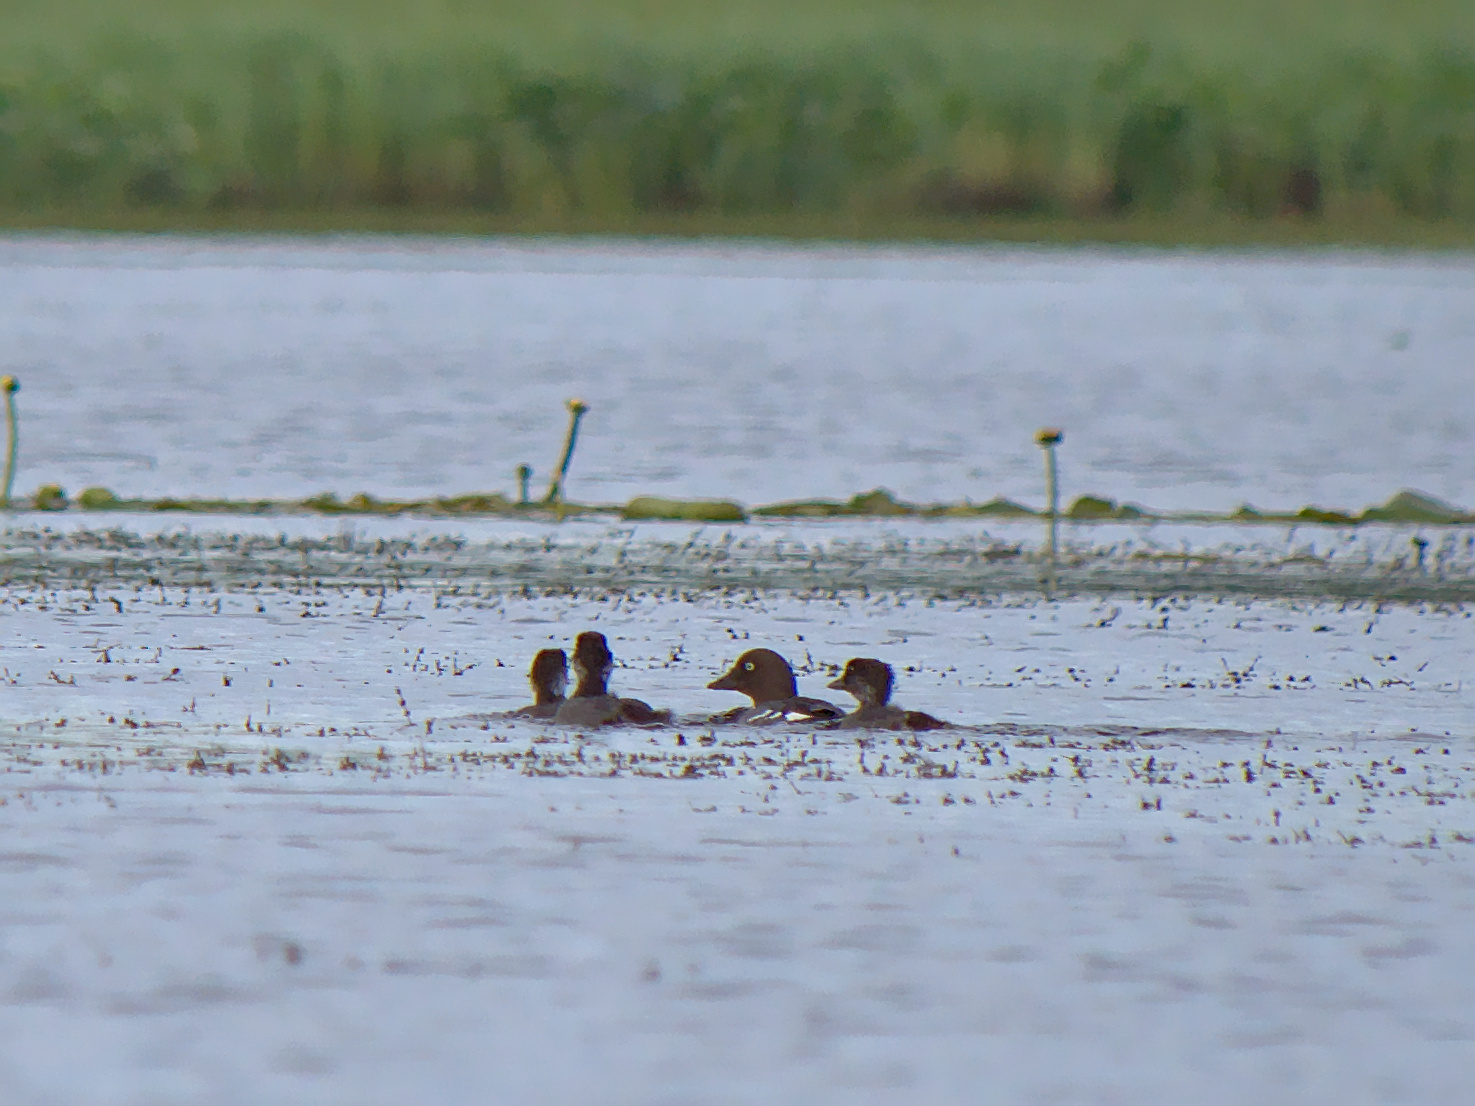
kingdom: Animalia
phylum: Chordata
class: Aves
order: Anseriformes
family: Anatidae
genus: Bucephala
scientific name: Bucephala clangula
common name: Common goldeneye
